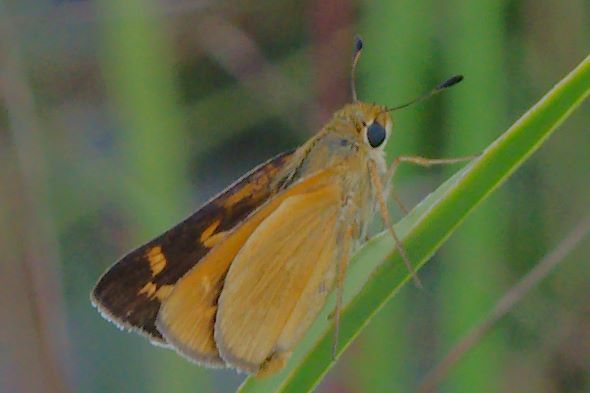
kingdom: Animalia
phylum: Arthropoda
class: Insecta
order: Lepidoptera
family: Hesperiidae
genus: Hesperia
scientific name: Hesperia meskei
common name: Meske's skipper
